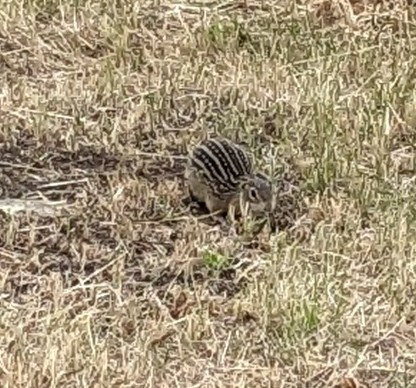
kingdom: Animalia
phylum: Chordata
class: Mammalia
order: Rodentia
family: Sciuridae
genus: Ictidomys
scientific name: Ictidomys tridecemlineatus
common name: Thirteen-lined ground squirrel
